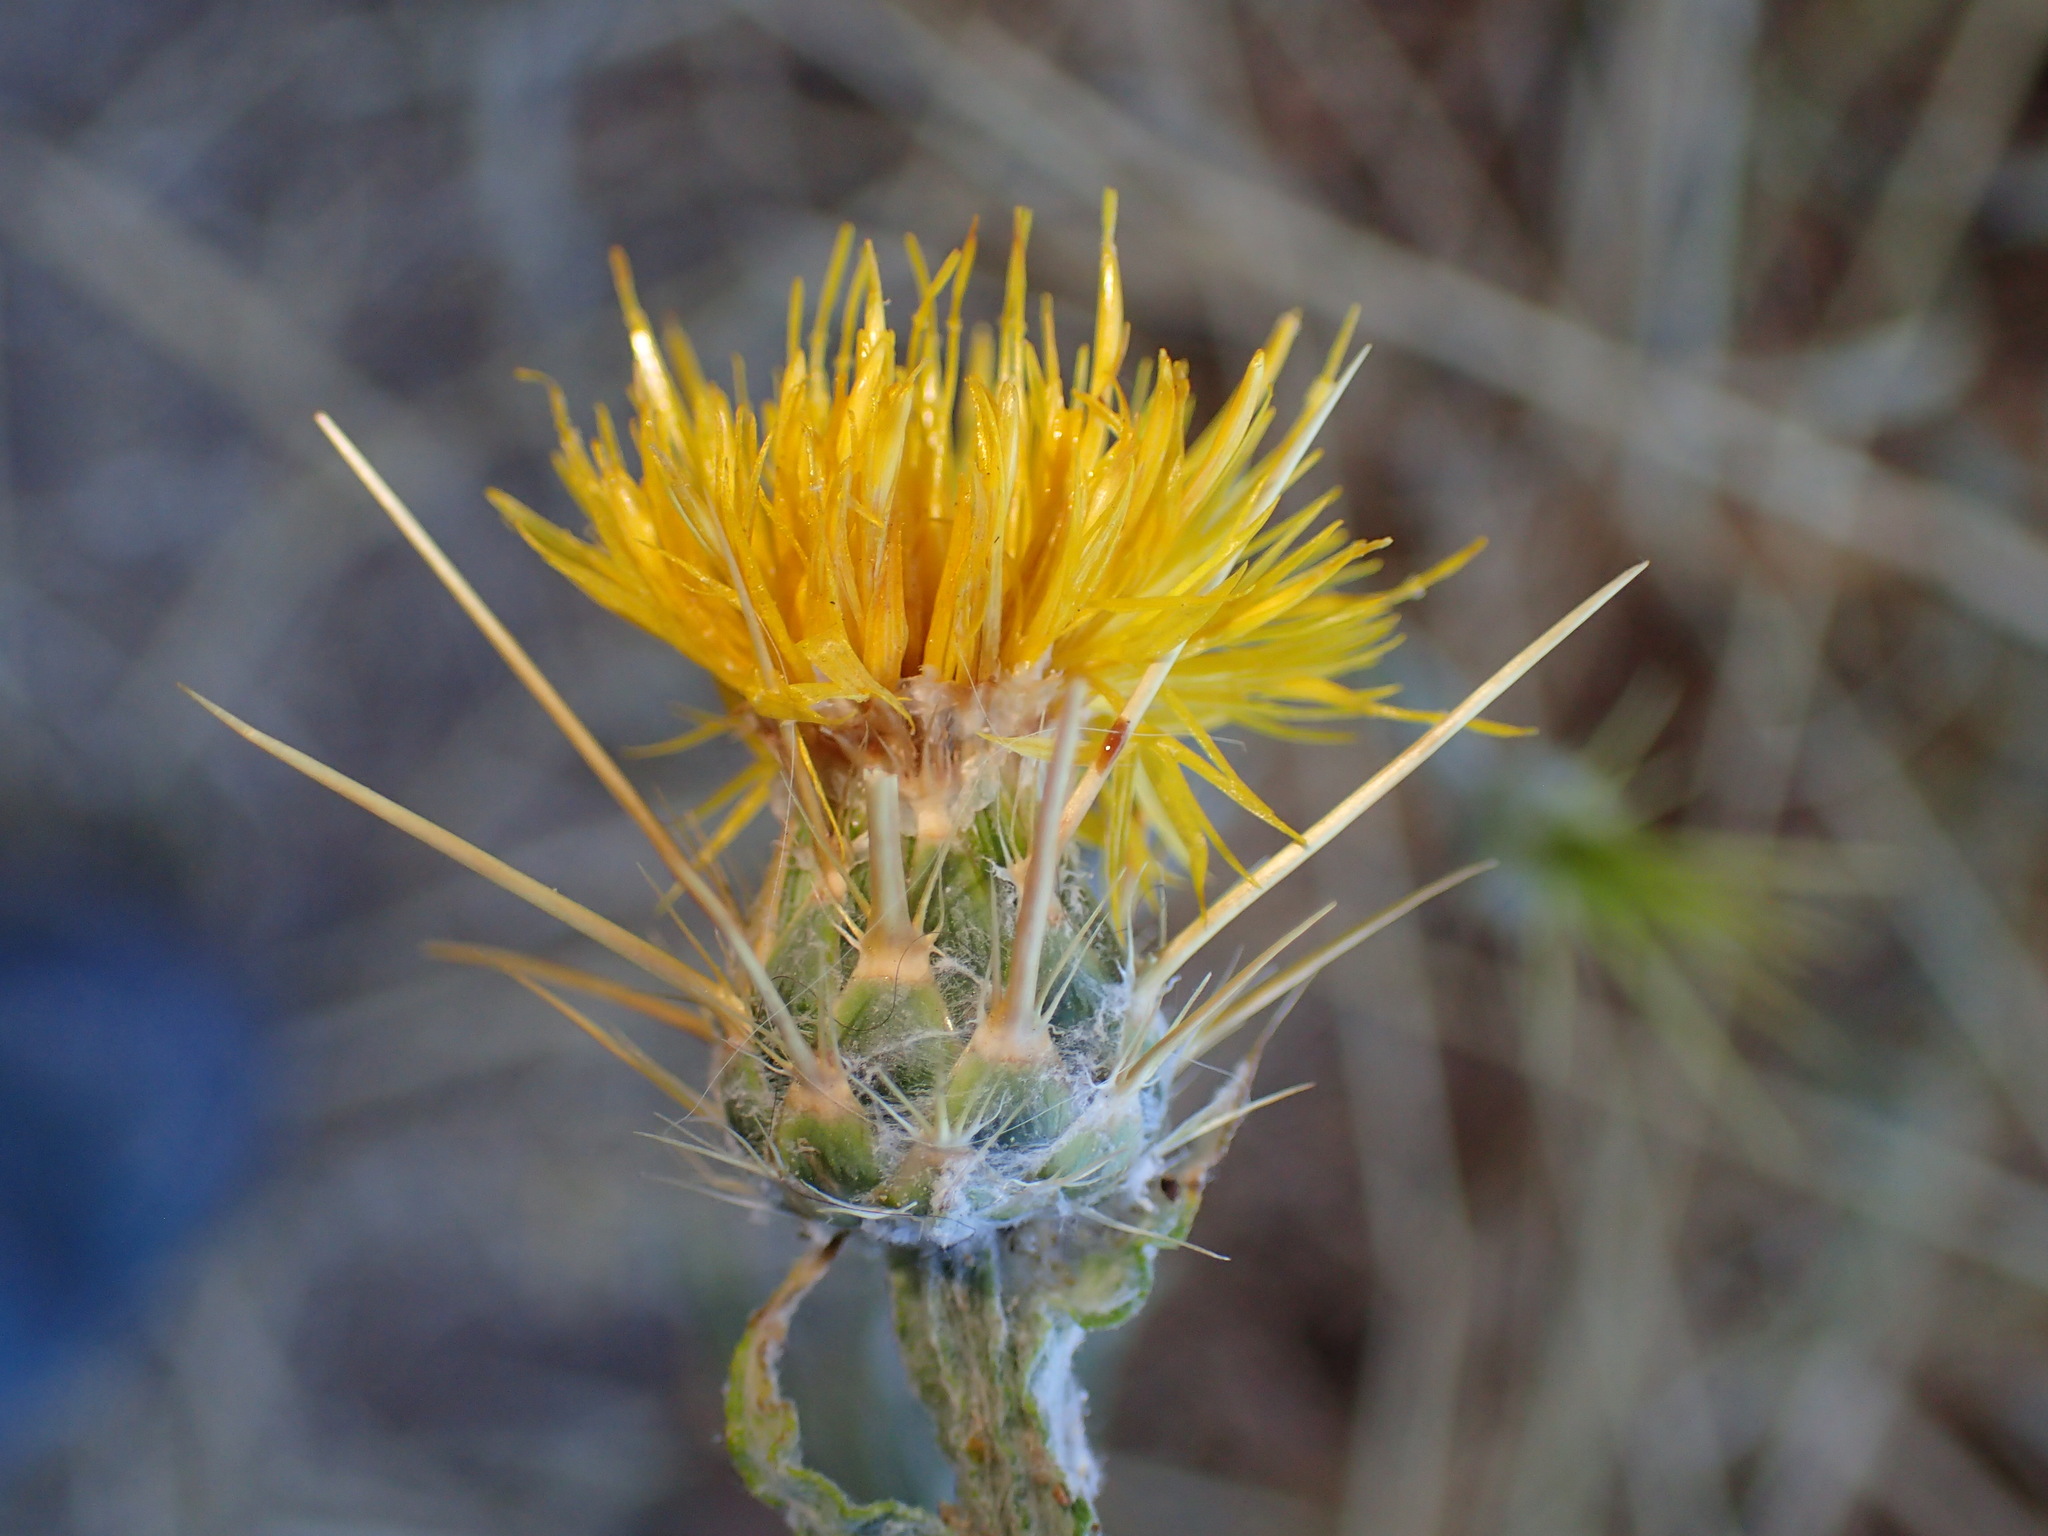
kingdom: Plantae
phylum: Tracheophyta
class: Magnoliopsida
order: Asterales
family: Asteraceae
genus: Centaurea
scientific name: Centaurea solstitialis
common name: Yellow star-thistle
